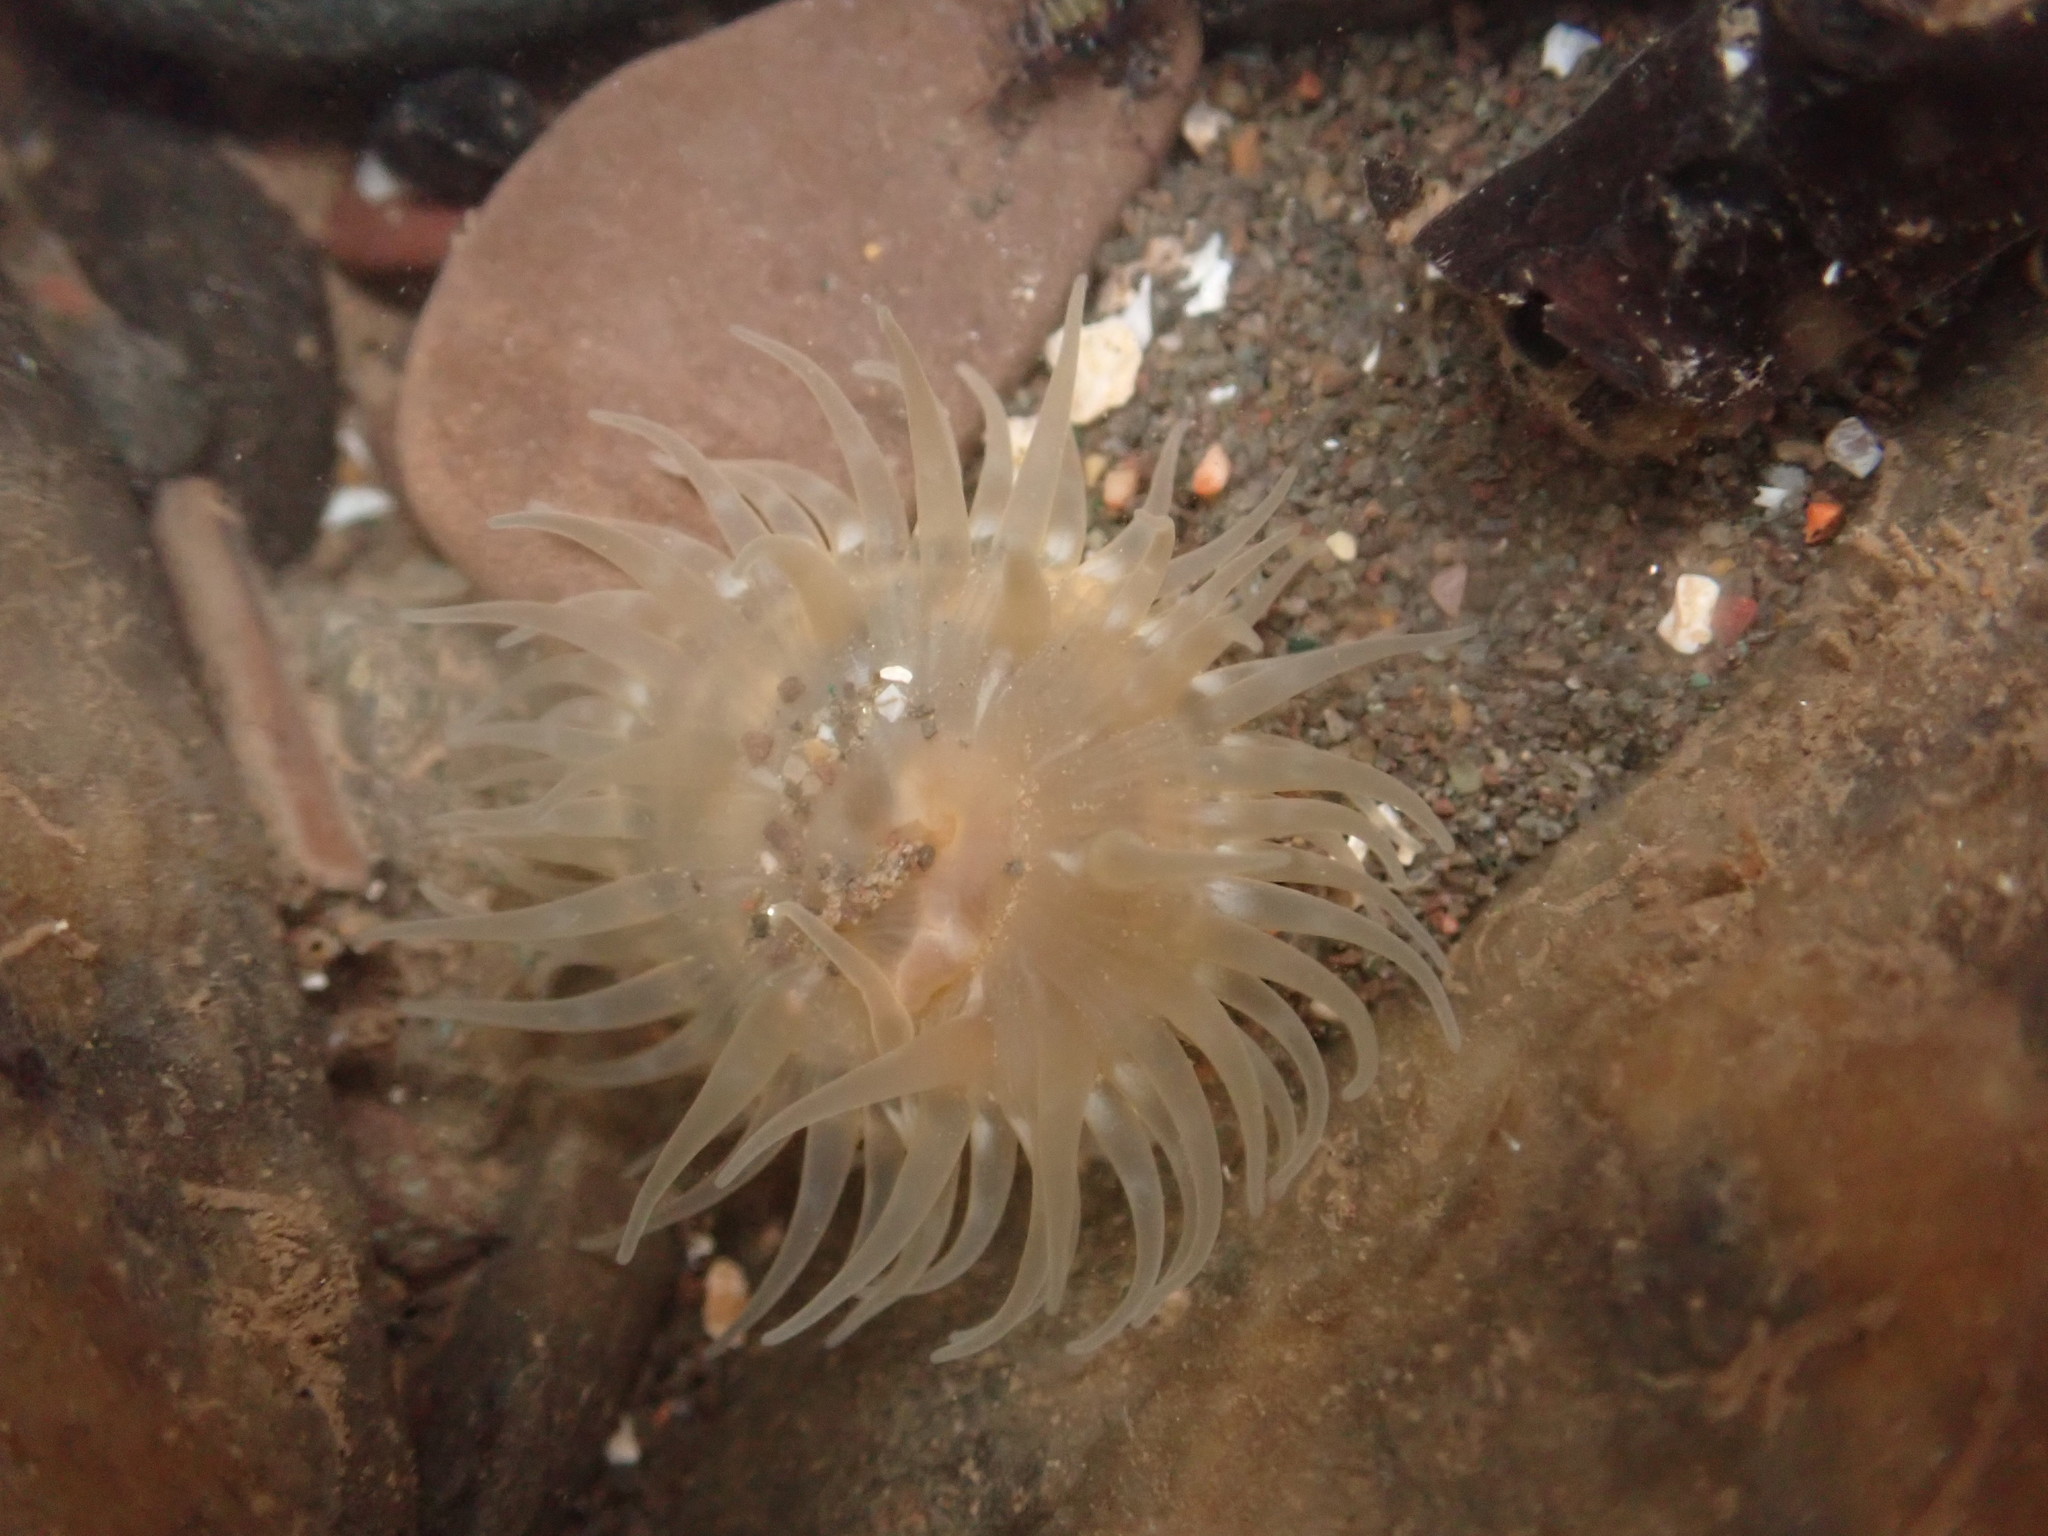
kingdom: Animalia
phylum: Cnidaria
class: Anthozoa
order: Actiniaria
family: Actiniidae
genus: Aulactinia
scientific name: Aulactinia stella
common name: Silver-spotted sea anemone
